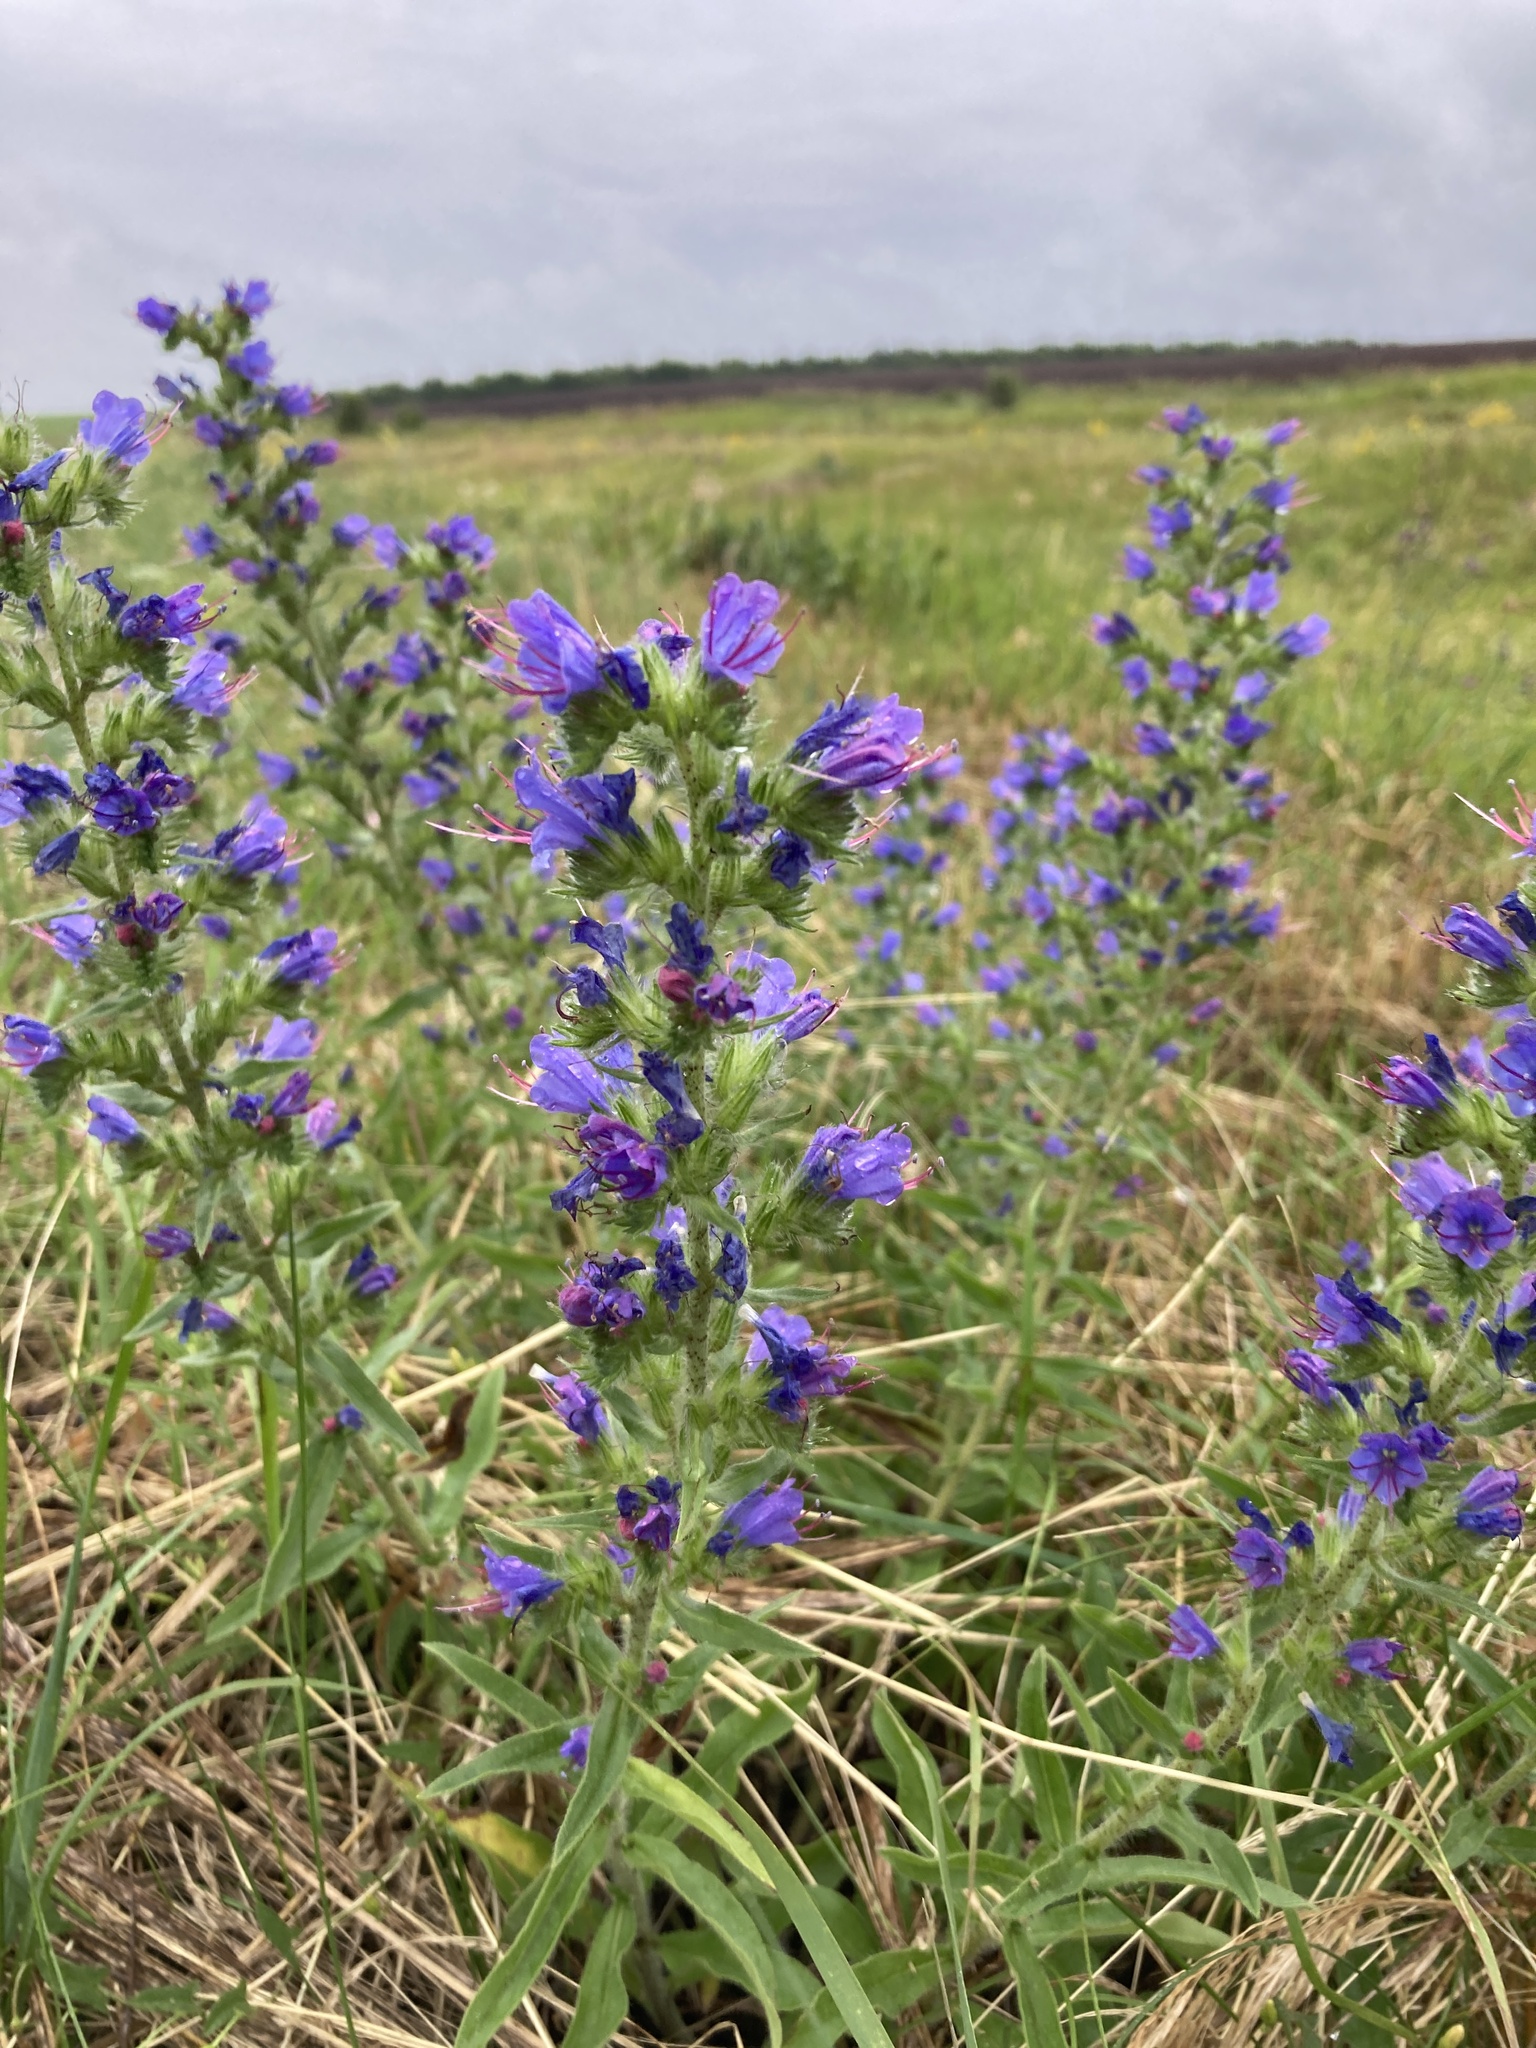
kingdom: Plantae
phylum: Tracheophyta
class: Magnoliopsida
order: Boraginales
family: Boraginaceae
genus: Echium
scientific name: Echium vulgare
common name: Common viper's bugloss
